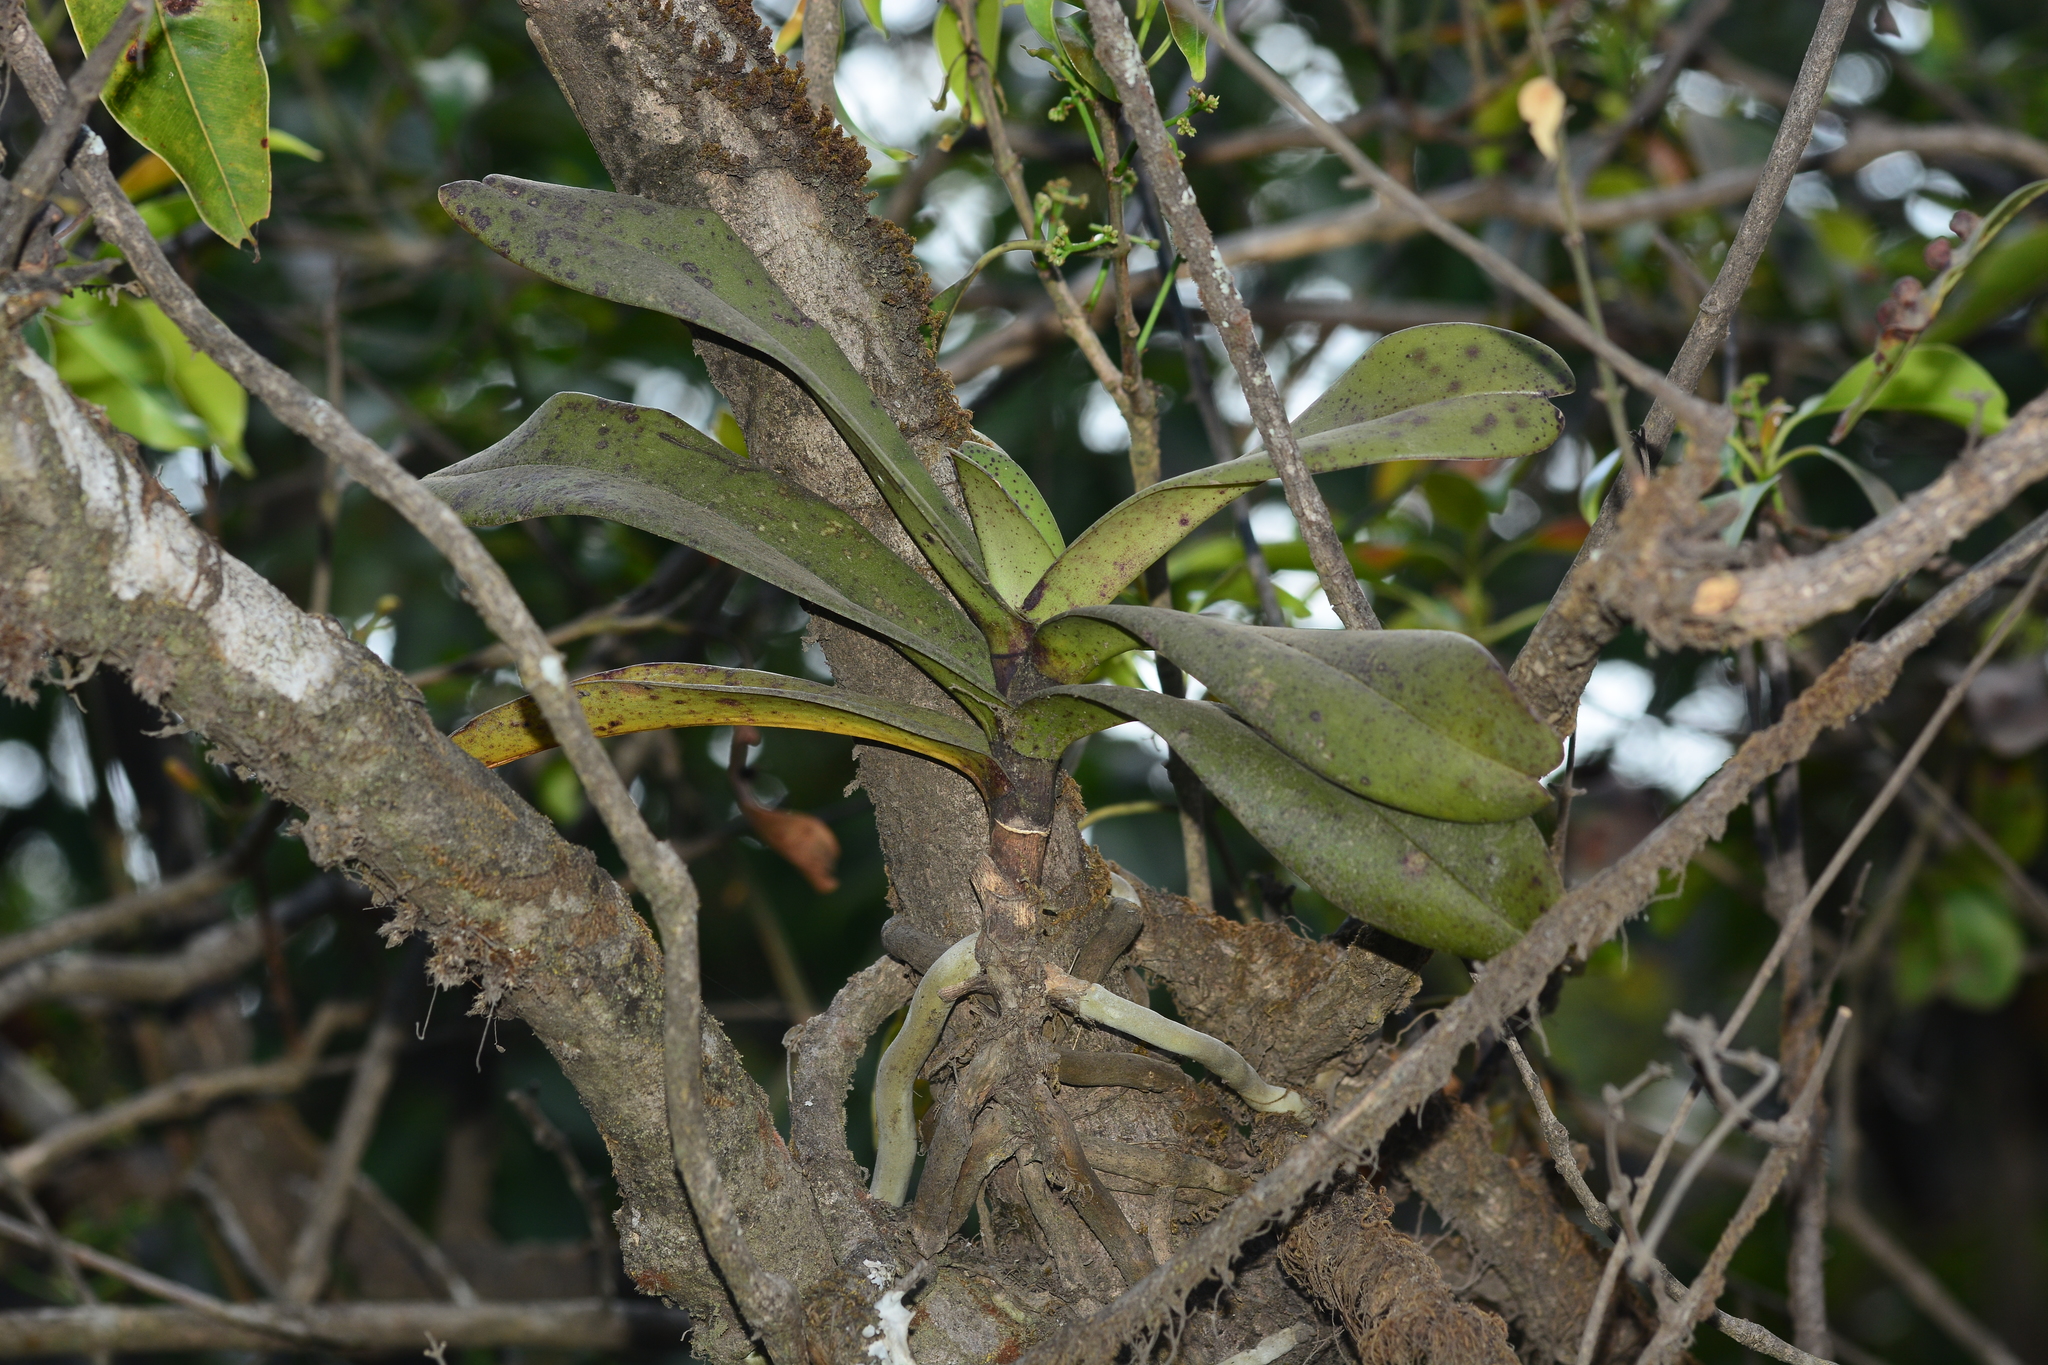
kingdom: Plantae
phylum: Tracheophyta
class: Liliopsida
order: Asparagales
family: Orchidaceae
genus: Aerides
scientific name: Aerides crispa
